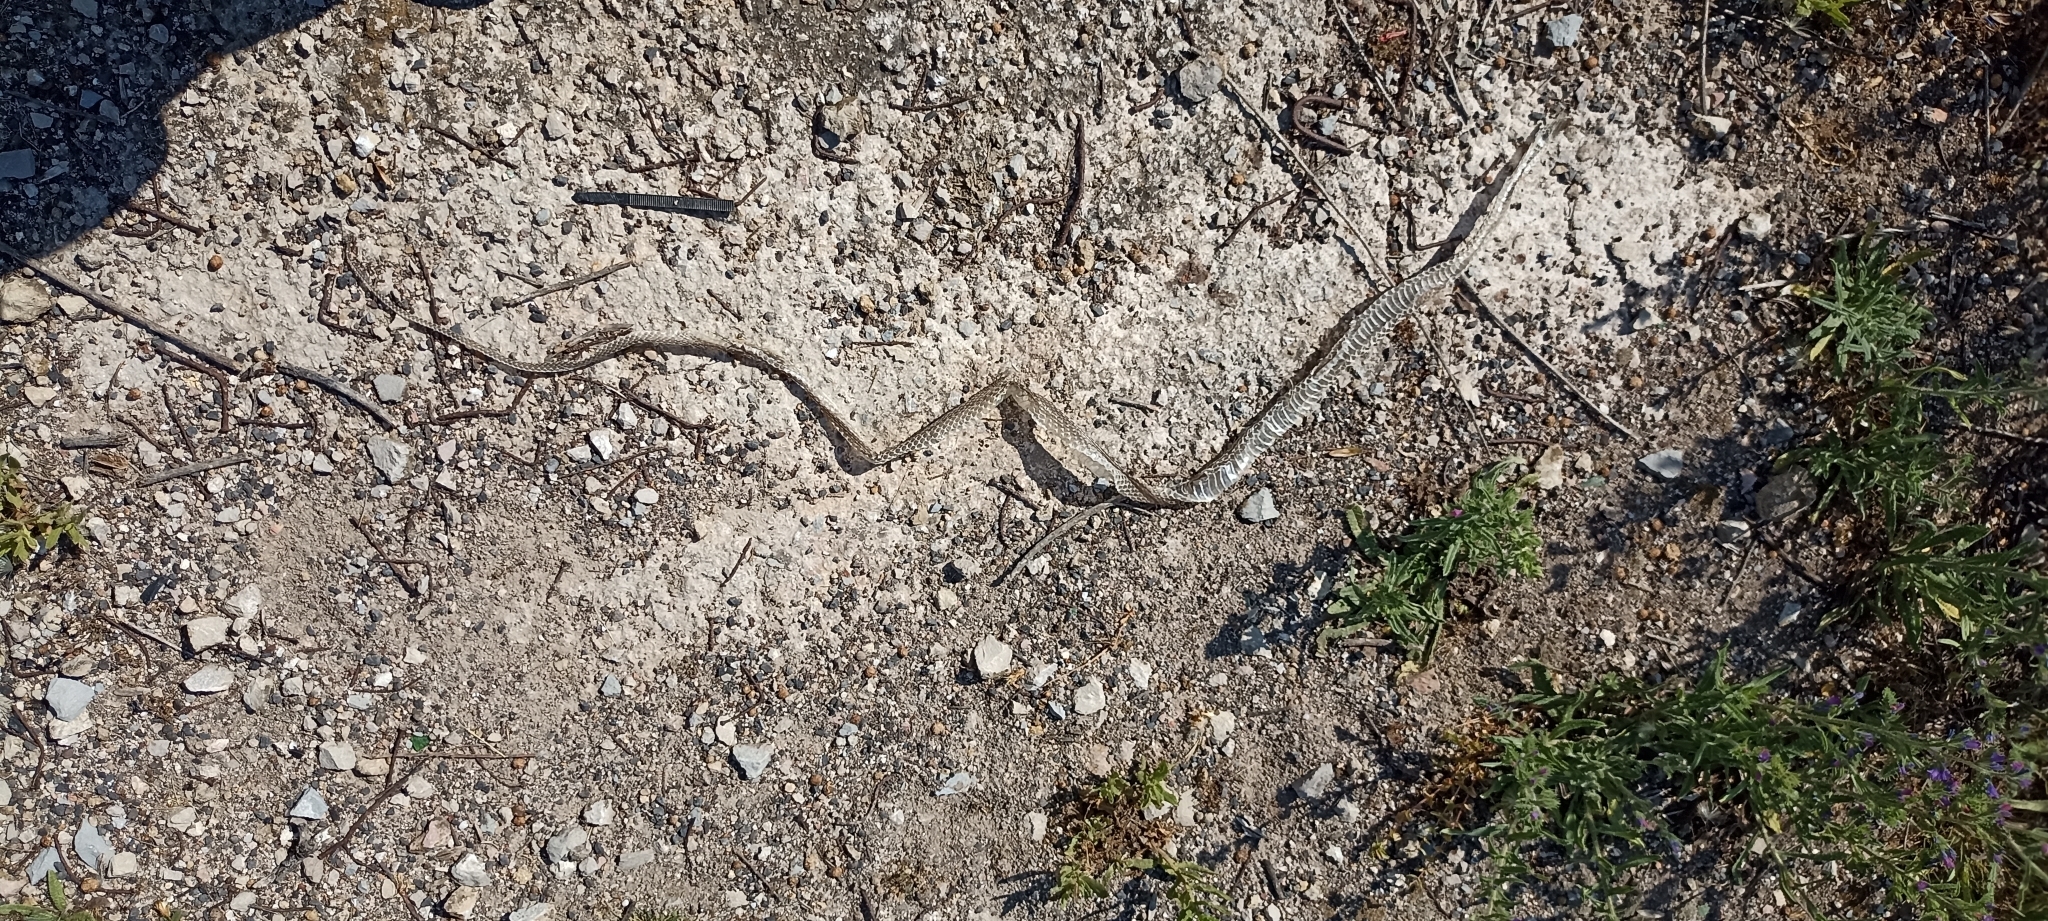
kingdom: Animalia
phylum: Chordata
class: Squamata
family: Psammophiidae
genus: Malpolon
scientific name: Malpolon monspessulanus
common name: Montpellier snake
